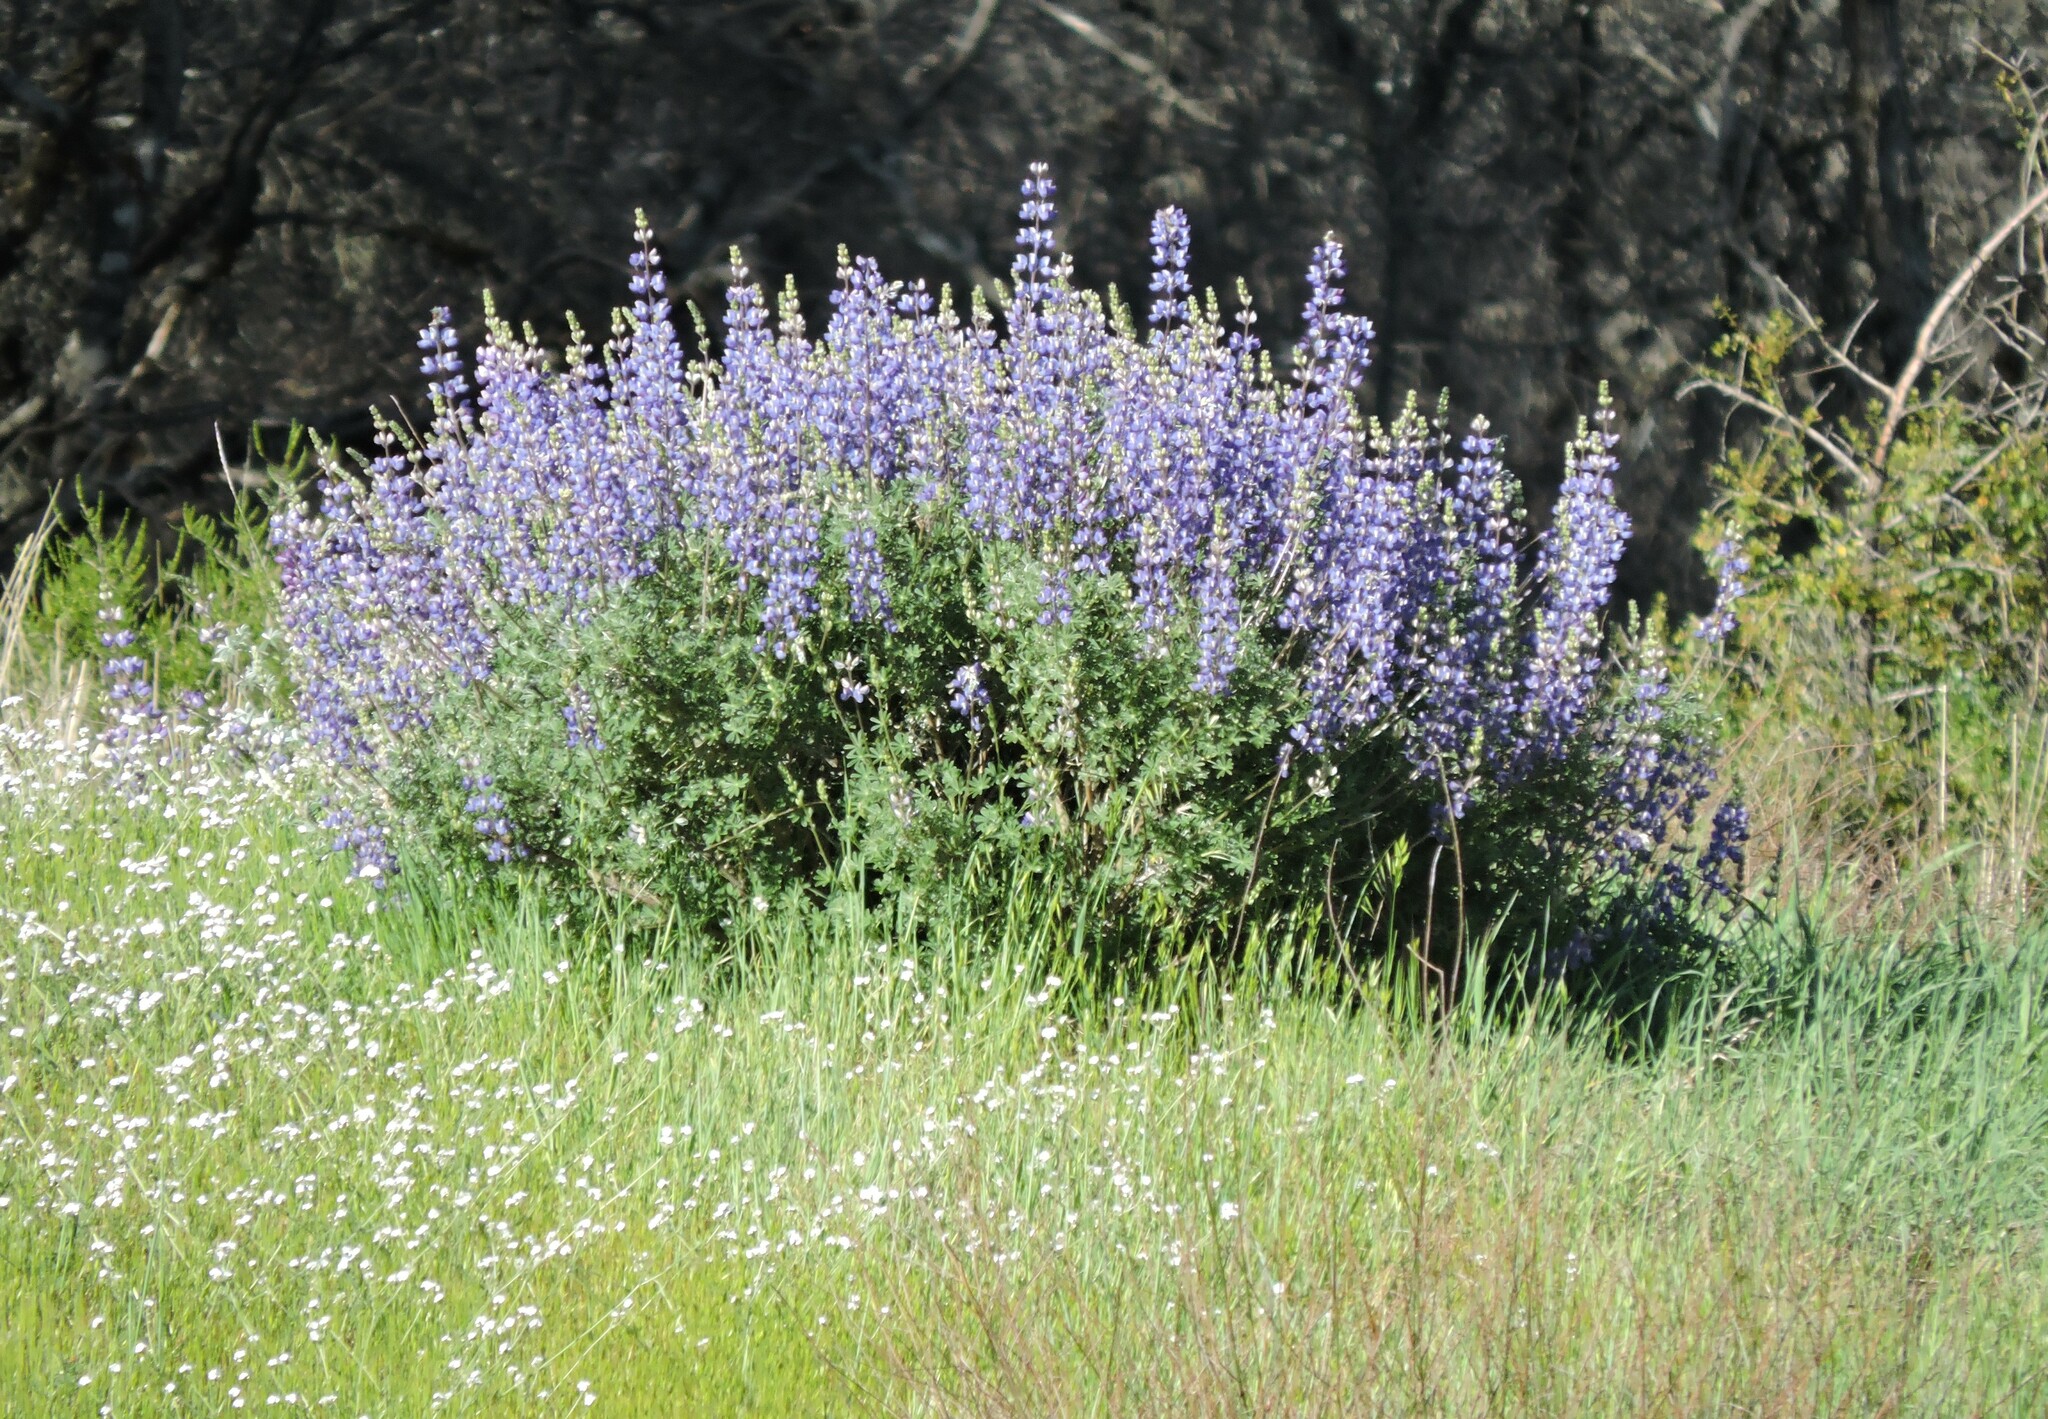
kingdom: Plantae
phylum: Tracheophyta
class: Magnoliopsida
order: Fabales
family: Fabaceae
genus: Lupinus
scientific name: Lupinus albifrons
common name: Foothill lupine
